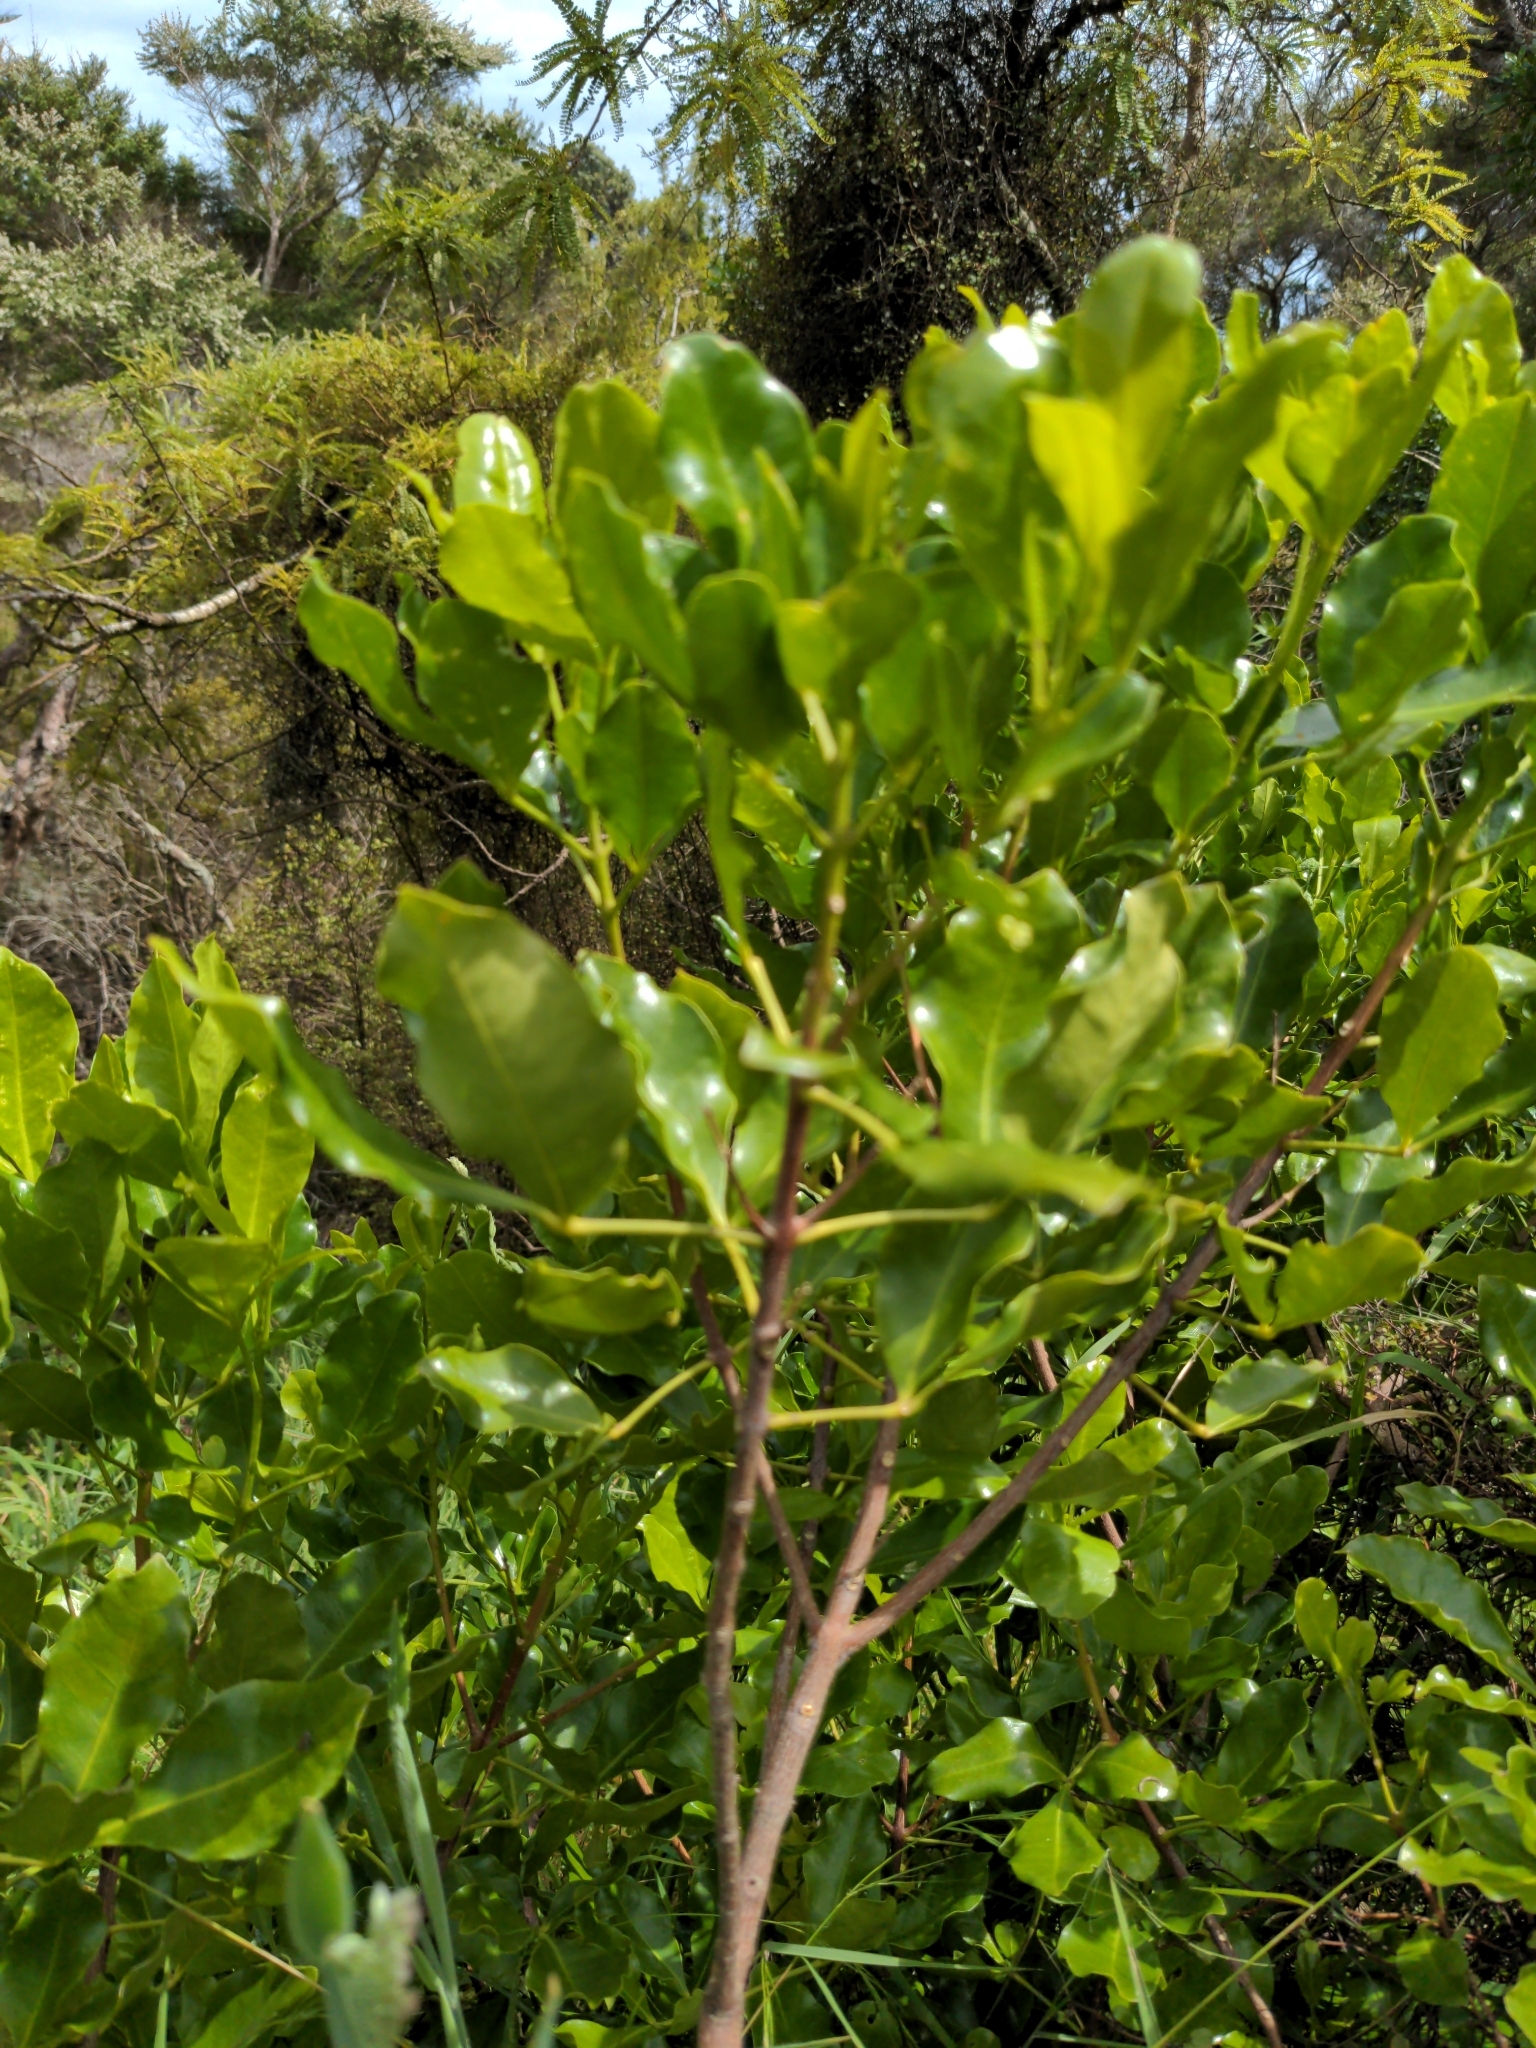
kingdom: Plantae
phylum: Tracheophyta
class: Magnoliopsida
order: Sapindales
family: Rutaceae
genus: Melicope
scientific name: Melicope ternata
